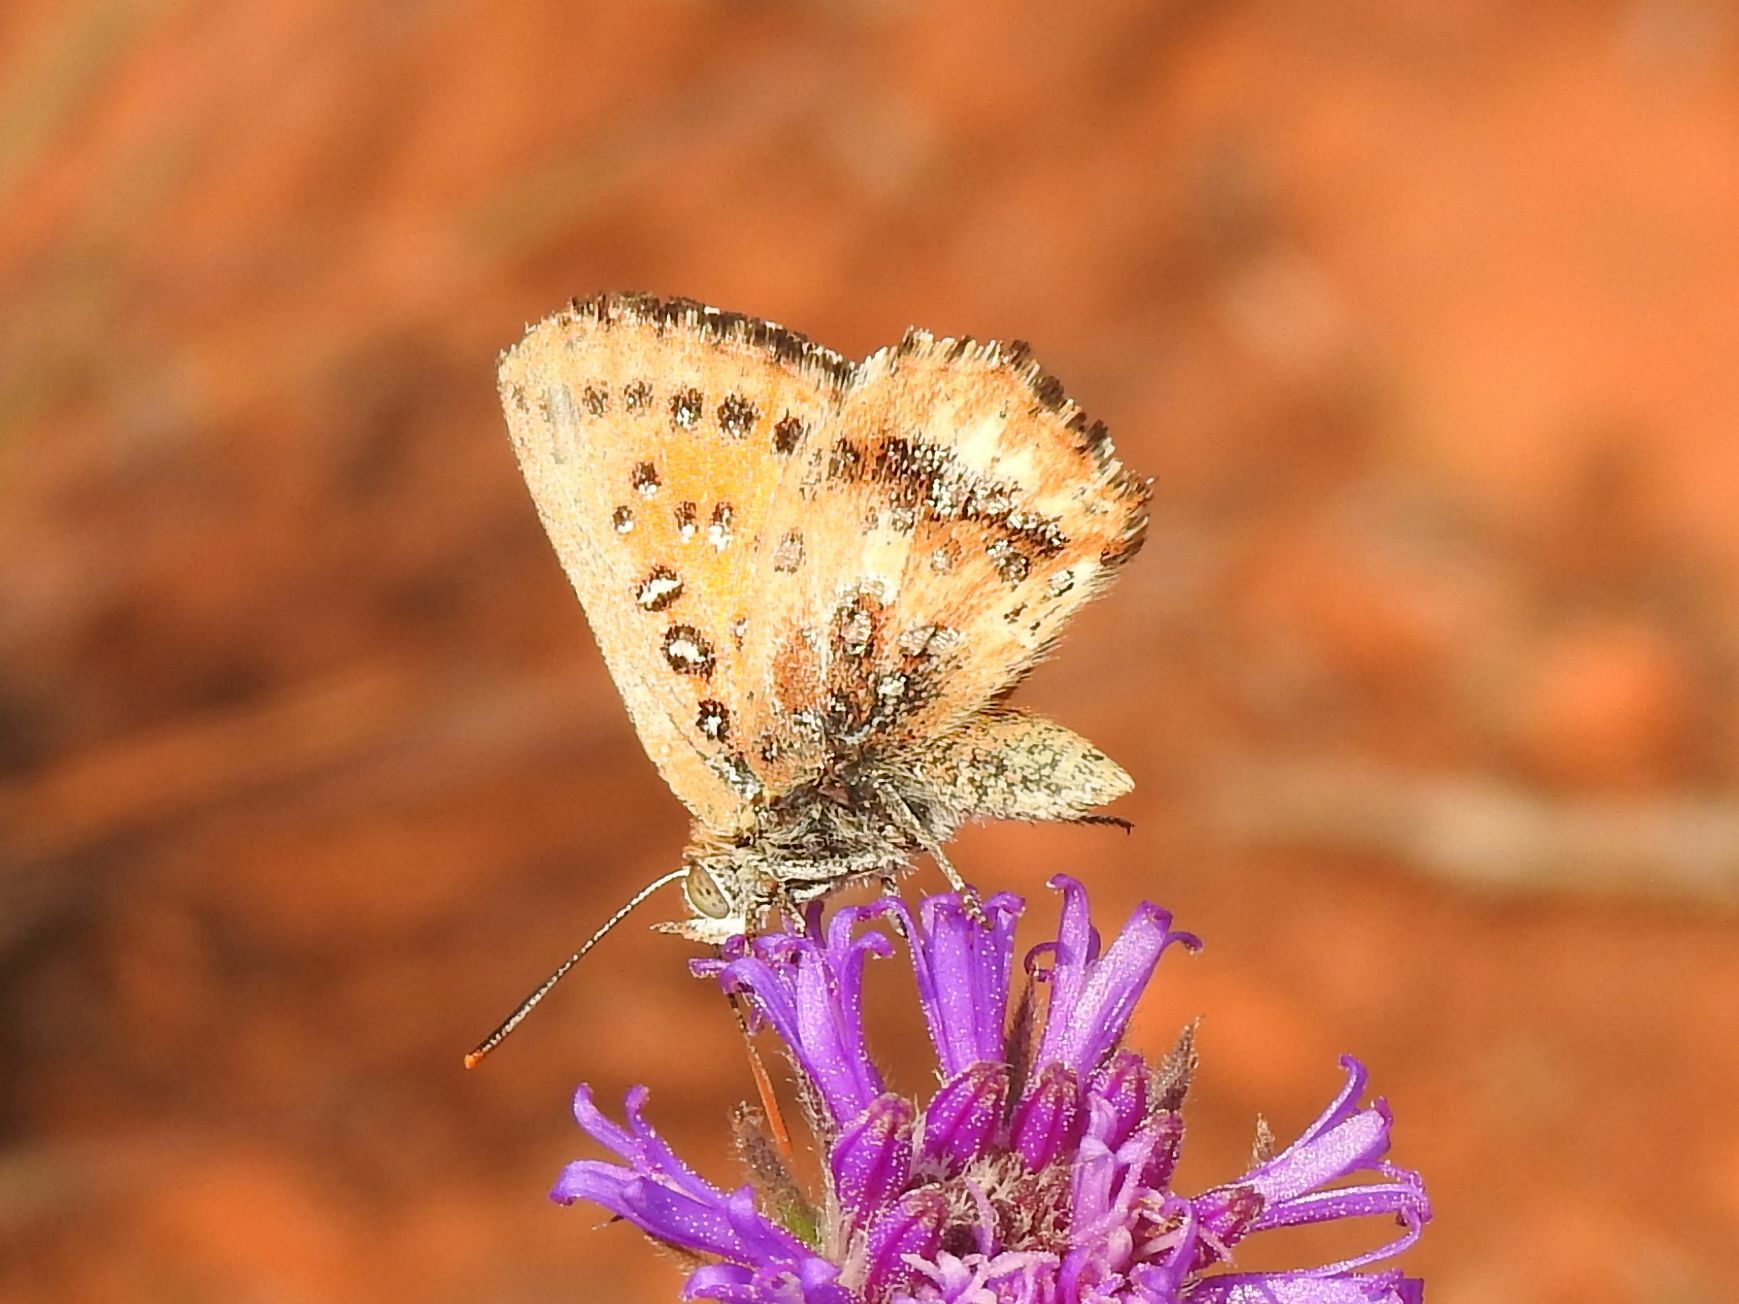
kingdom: Animalia
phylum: Arthropoda
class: Insecta
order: Lepidoptera
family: Lycaenidae
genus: Aloeides
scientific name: Aloeides molomo
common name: Mottled russet
